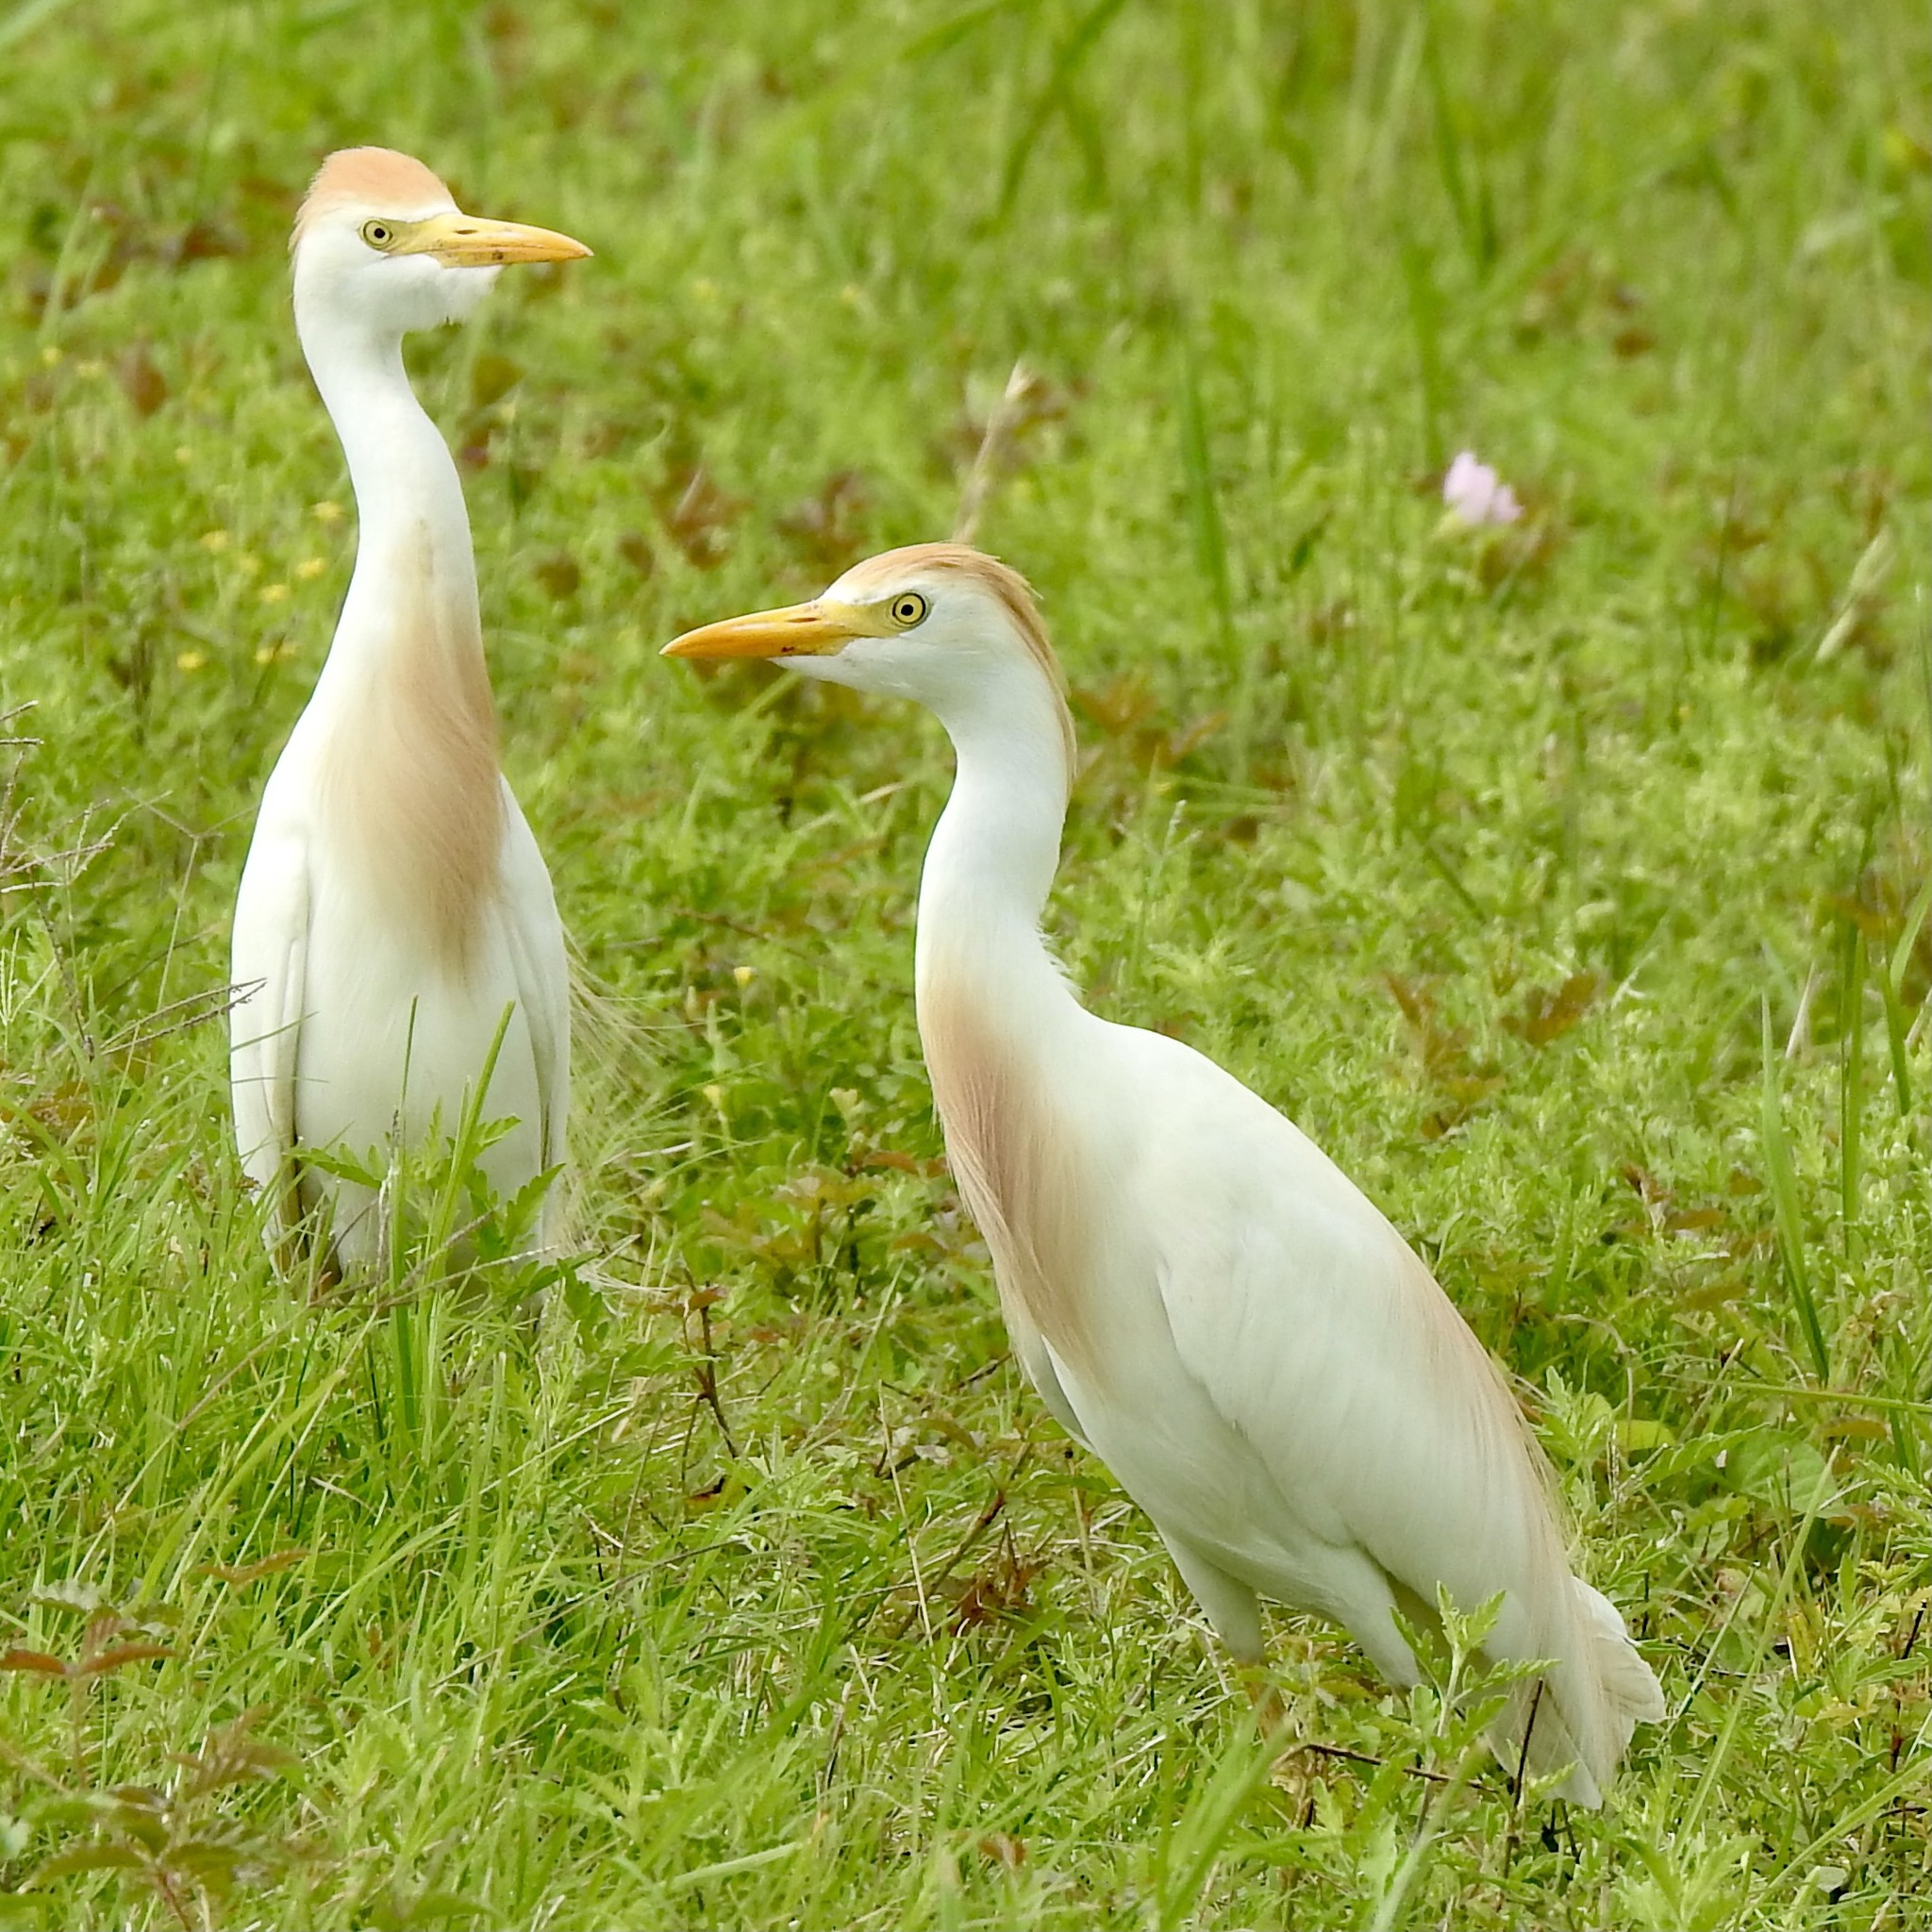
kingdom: Animalia
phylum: Chordata
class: Aves
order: Pelecaniformes
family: Ardeidae
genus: Bubulcus
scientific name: Bubulcus ibis
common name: Cattle egret
